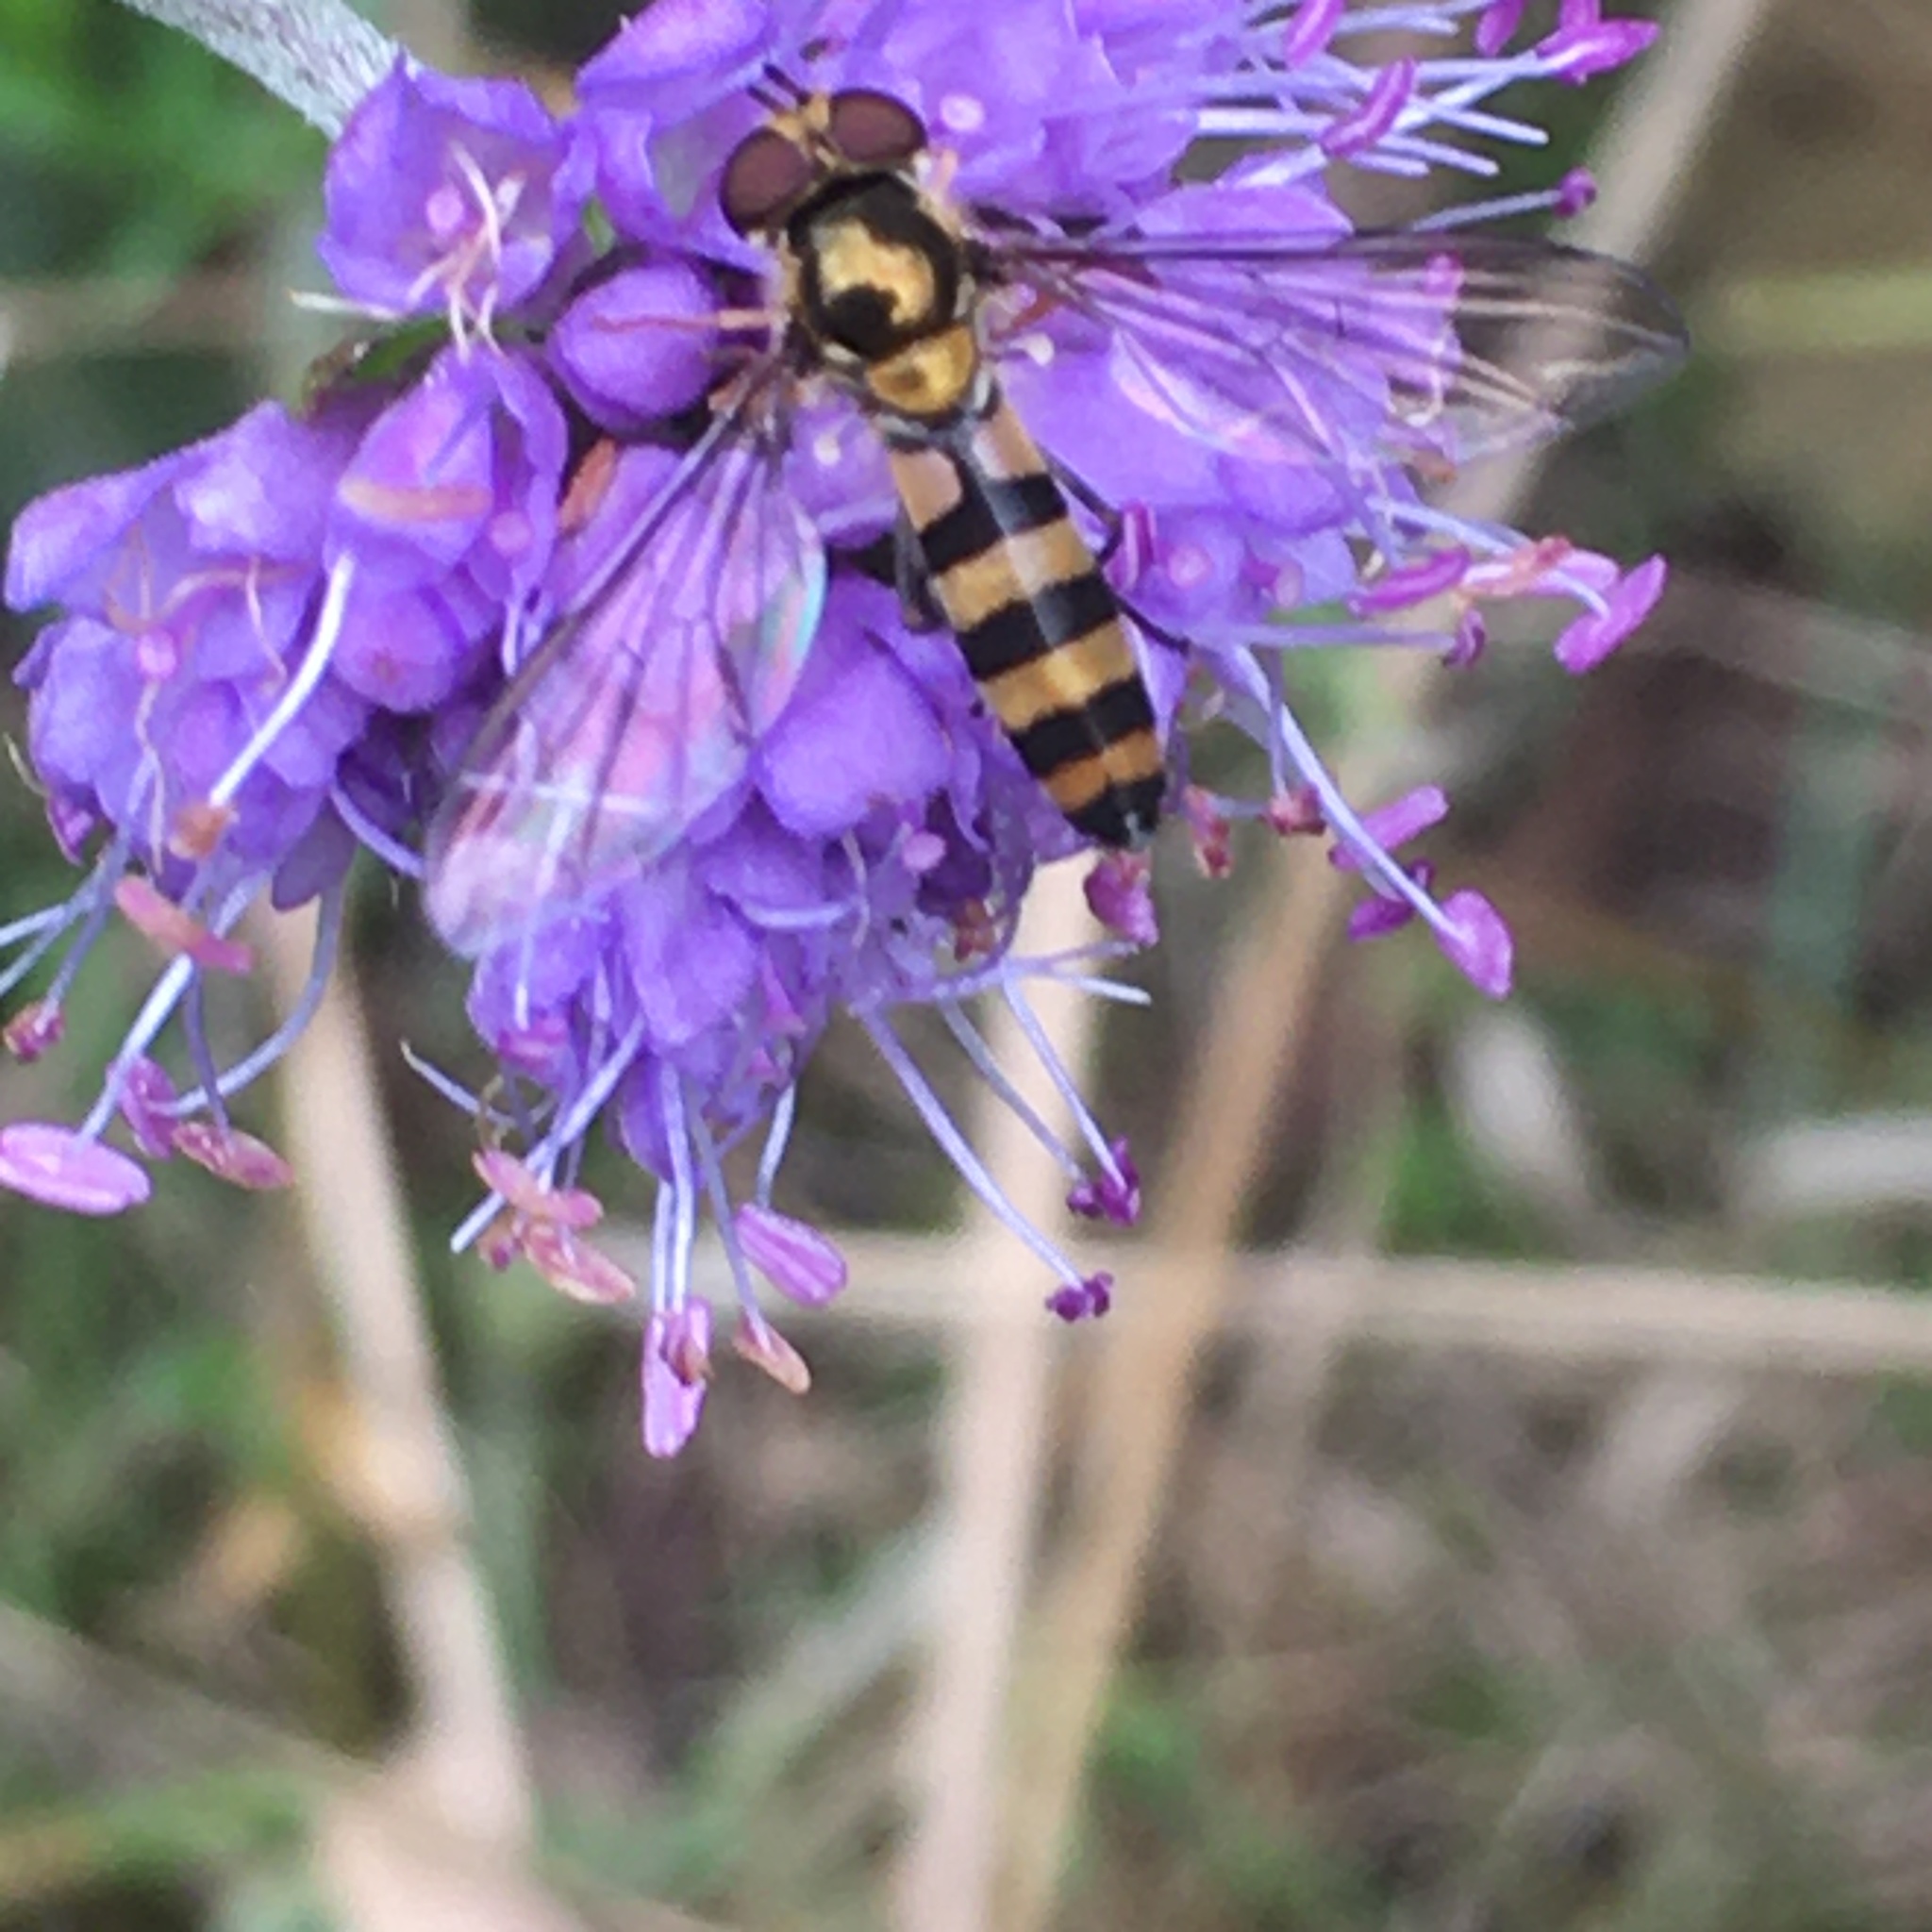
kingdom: Animalia
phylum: Arthropoda
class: Insecta
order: Diptera
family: Syrphidae
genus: Meliscaeva
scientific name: Meliscaeva cinctella
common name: American thintail fly
